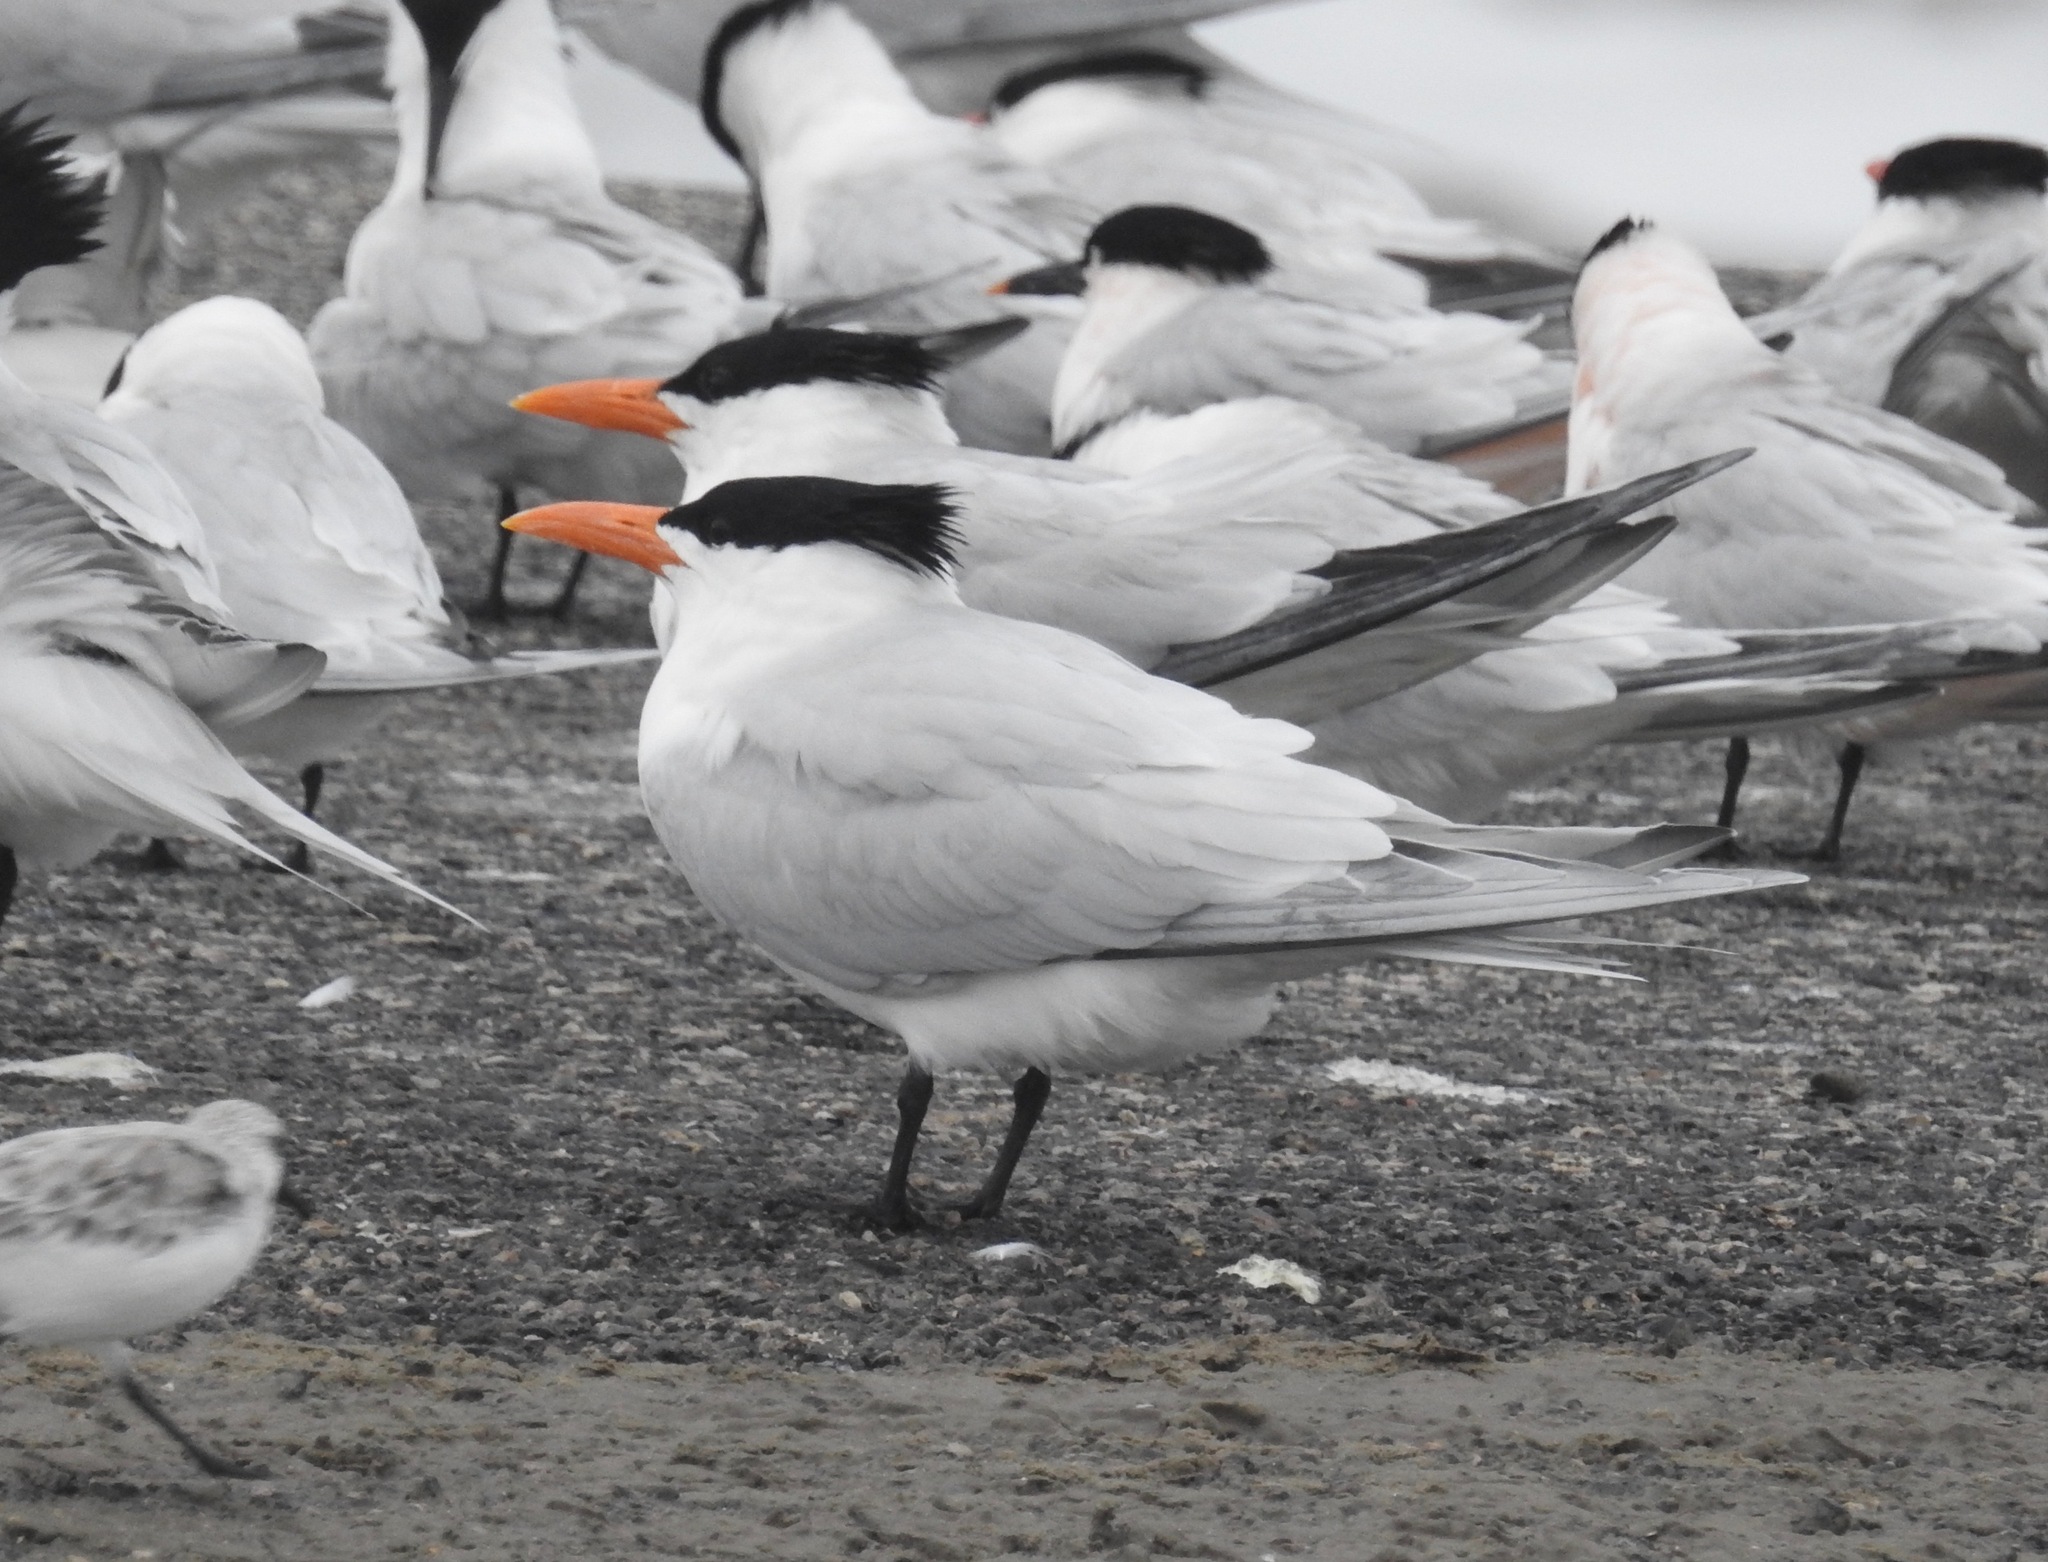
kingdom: Animalia
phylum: Chordata
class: Aves
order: Charadriiformes
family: Laridae
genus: Thalasseus
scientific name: Thalasseus maximus
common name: Royal tern
